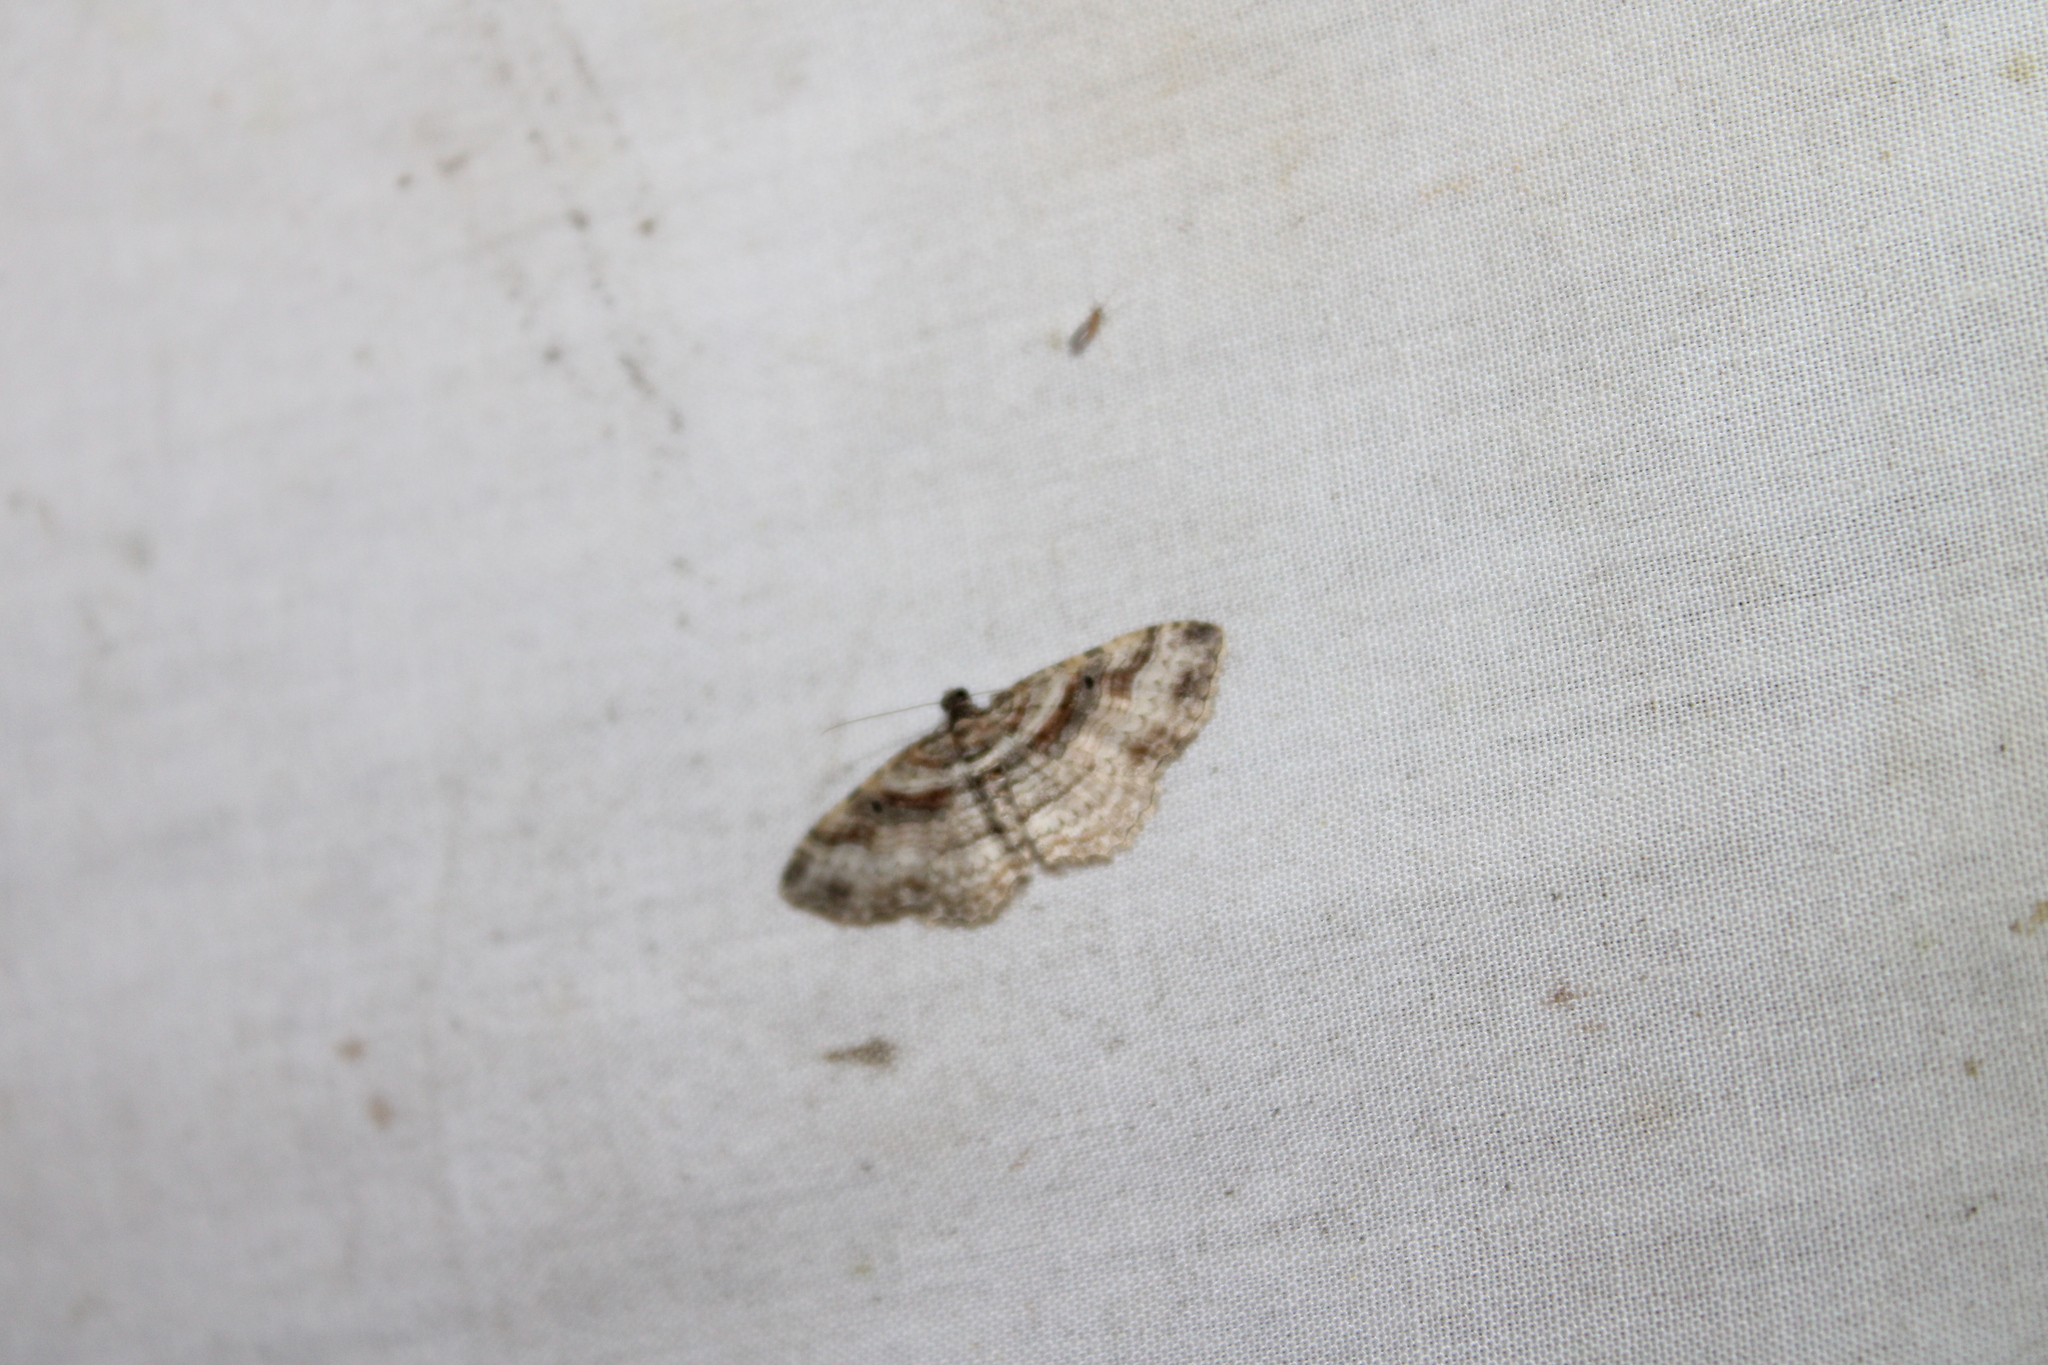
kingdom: Animalia
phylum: Arthropoda
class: Insecta
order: Lepidoptera
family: Geometridae
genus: Costaconvexa
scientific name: Costaconvexa centrostrigaria
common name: Bent-line carpet
